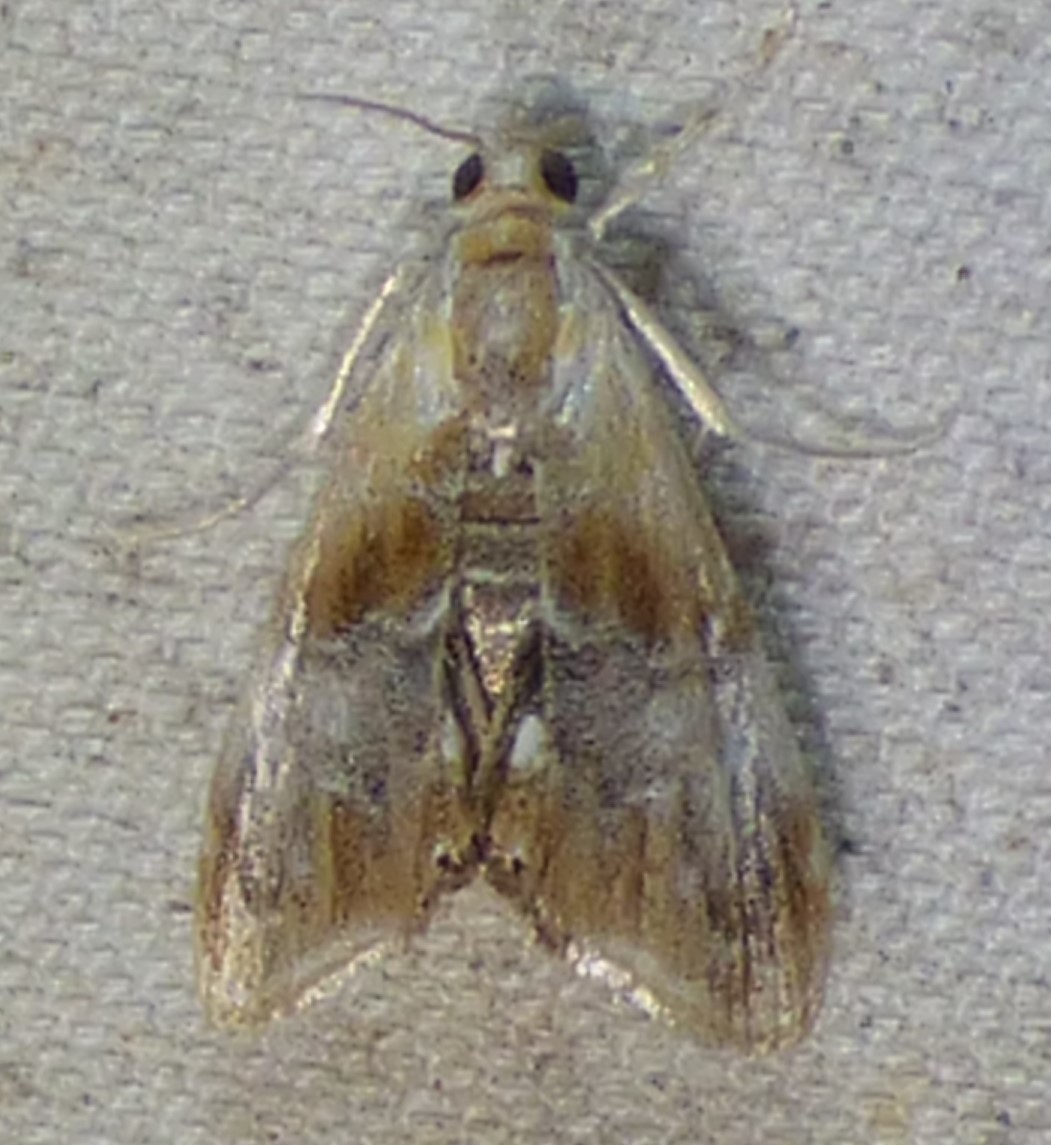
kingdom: Animalia
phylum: Arthropoda
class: Insecta
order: Lepidoptera
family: Crambidae
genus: Dicymolomia
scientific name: Dicymolomia julianalis
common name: Julia's dicymolomia moth
